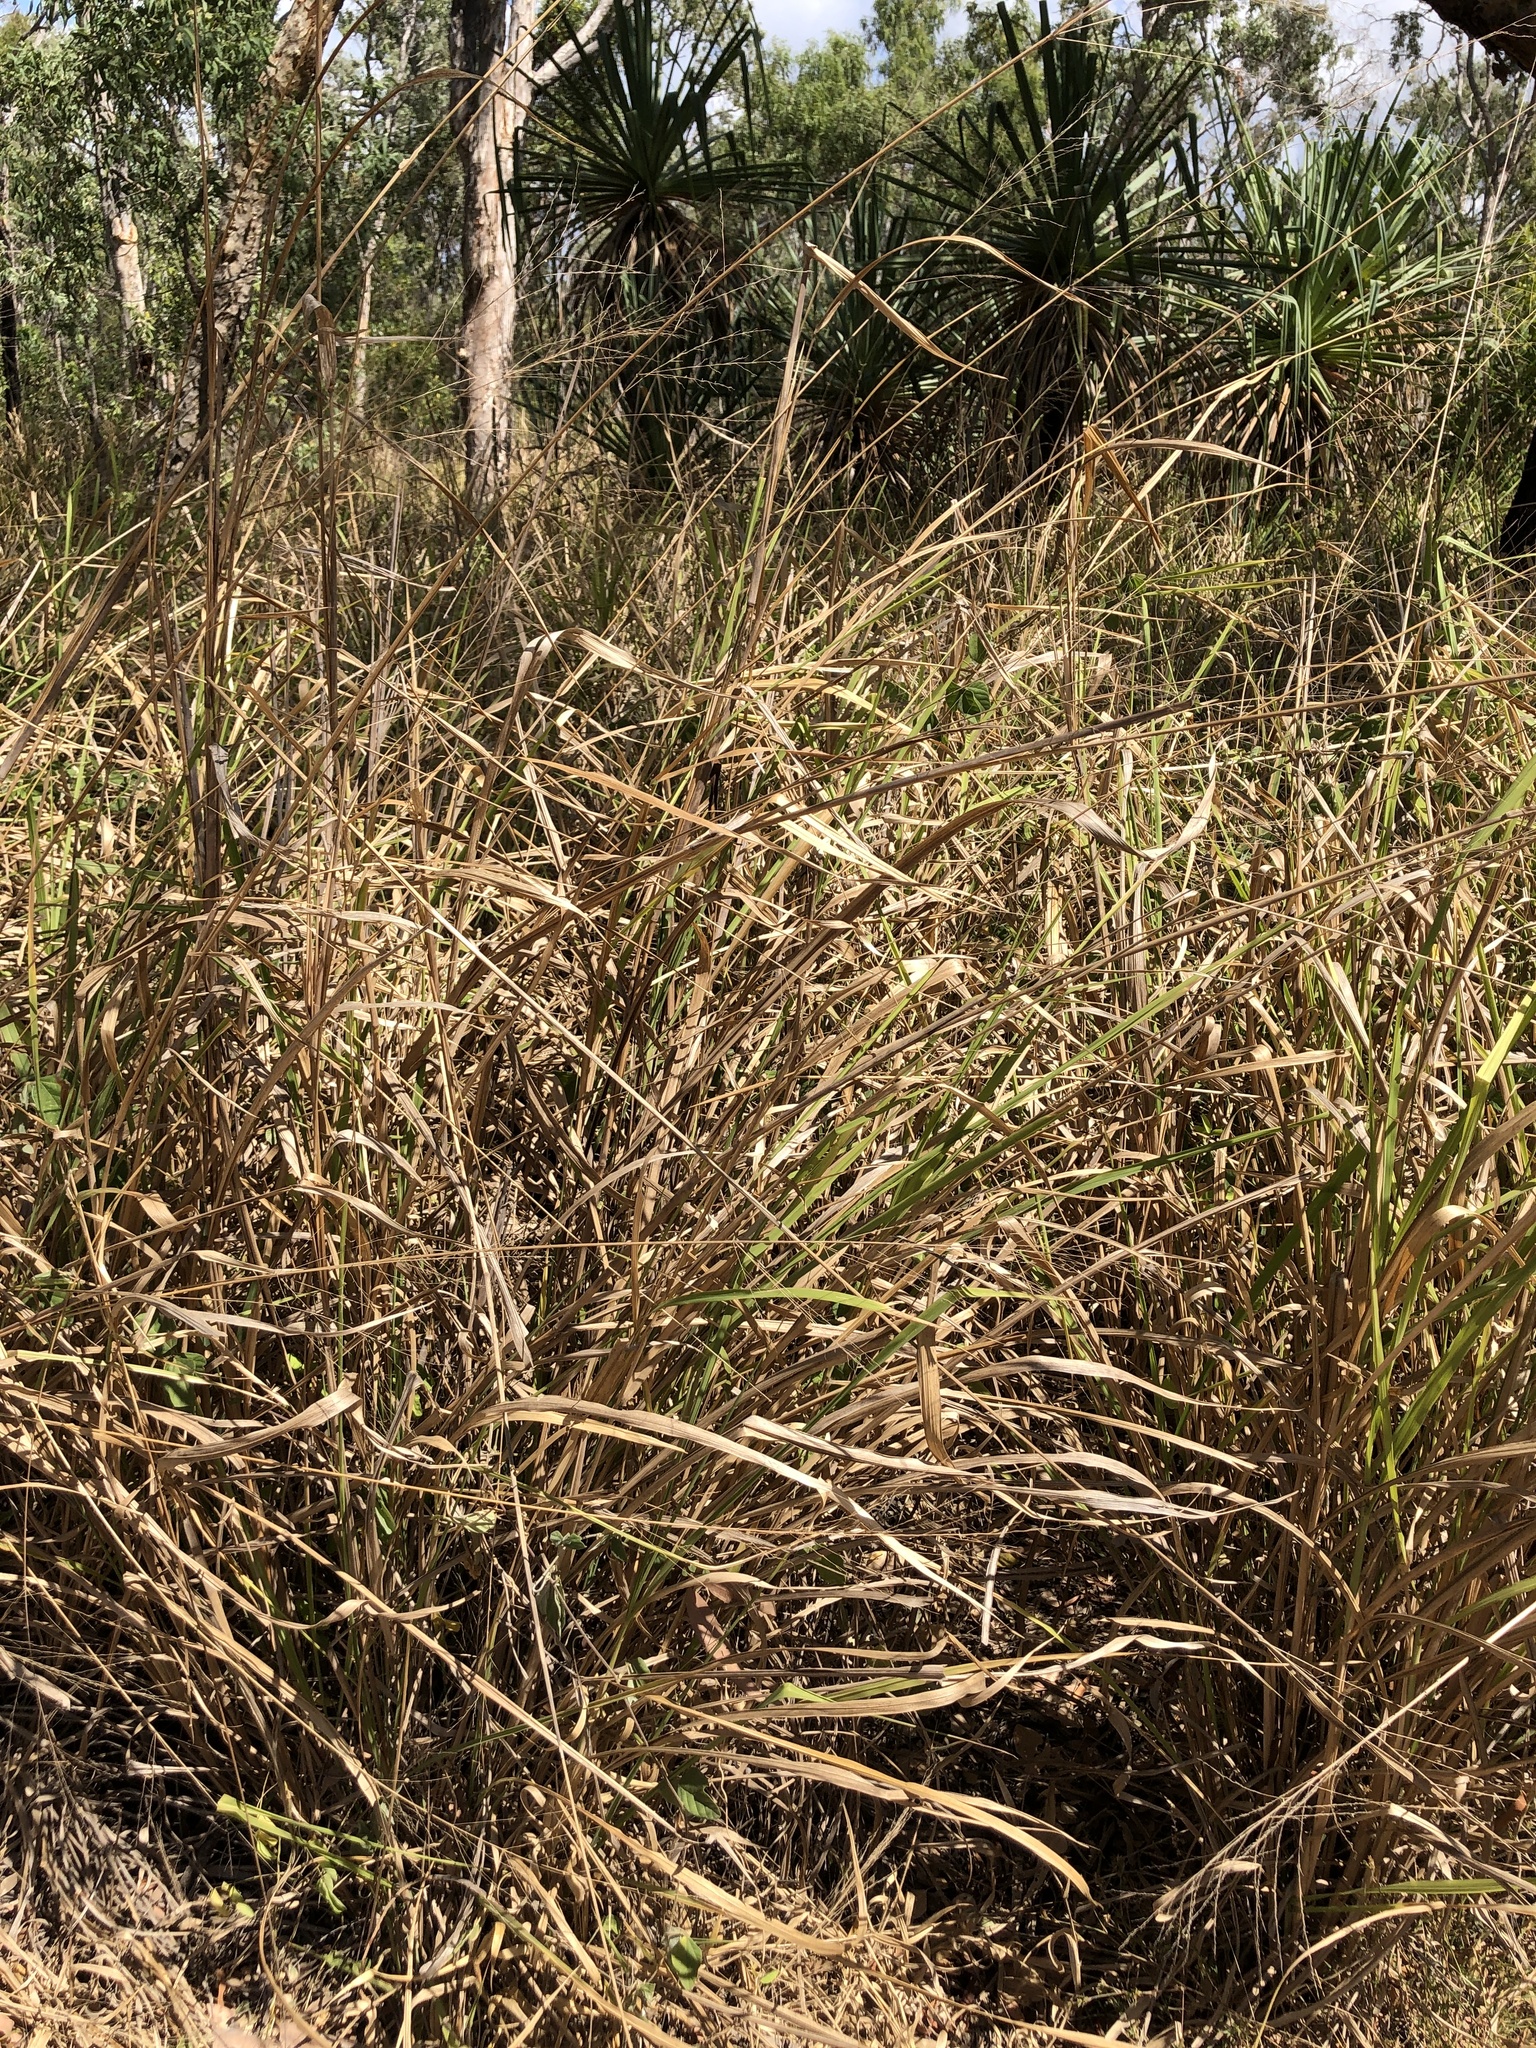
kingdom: Plantae
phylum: Tracheophyta
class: Liliopsida
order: Poales
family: Poaceae
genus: Megathyrsus
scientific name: Megathyrsus maximus
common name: Guineagrass
